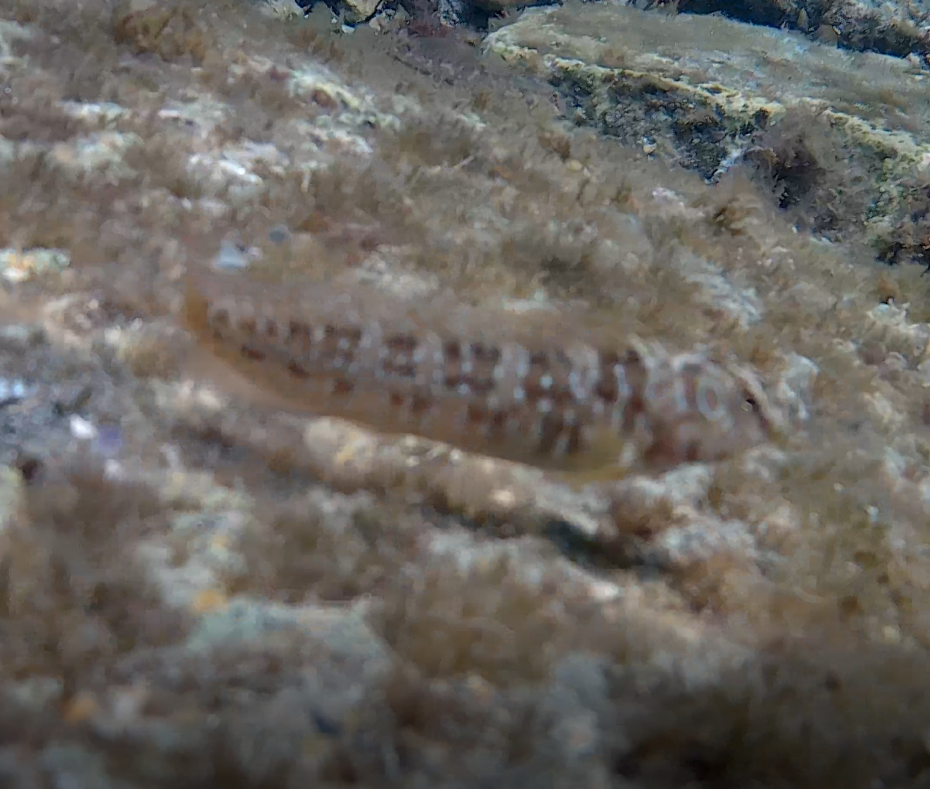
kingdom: Animalia
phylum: Chordata
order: Perciformes
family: Blenniidae
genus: Salaria
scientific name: Salaria pavo
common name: Peacock blenny
